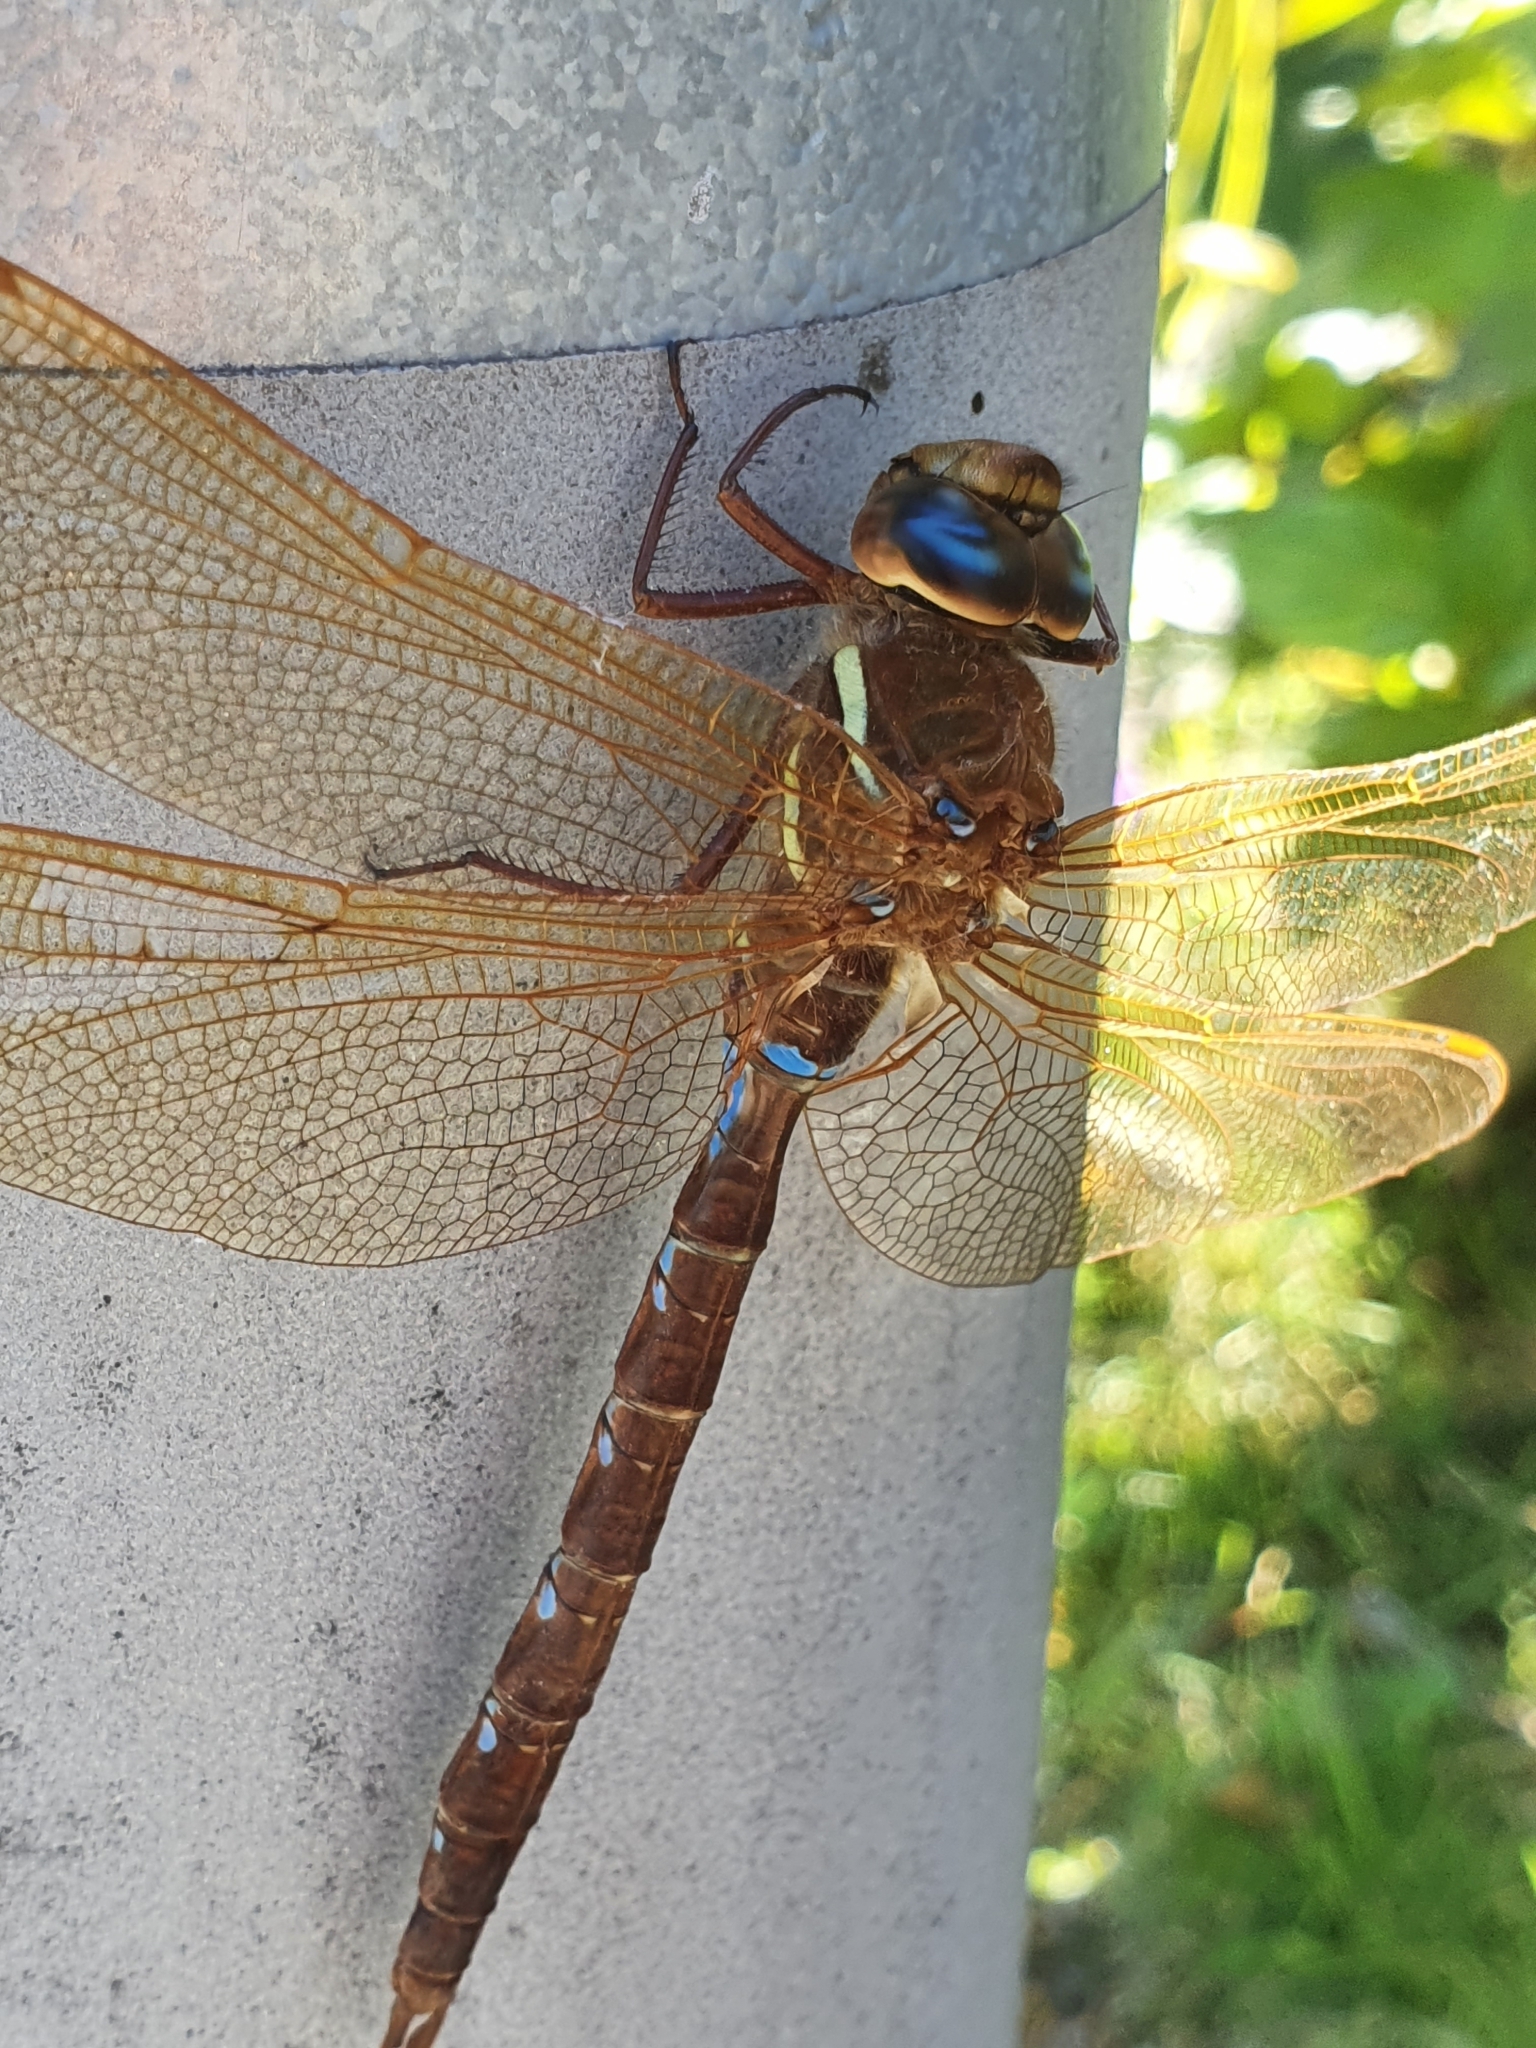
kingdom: Animalia
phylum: Arthropoda
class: Insecta
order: Odonata
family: Aeshnidae
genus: Aeshna
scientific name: Aeshna grandis
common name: Brown hawker
